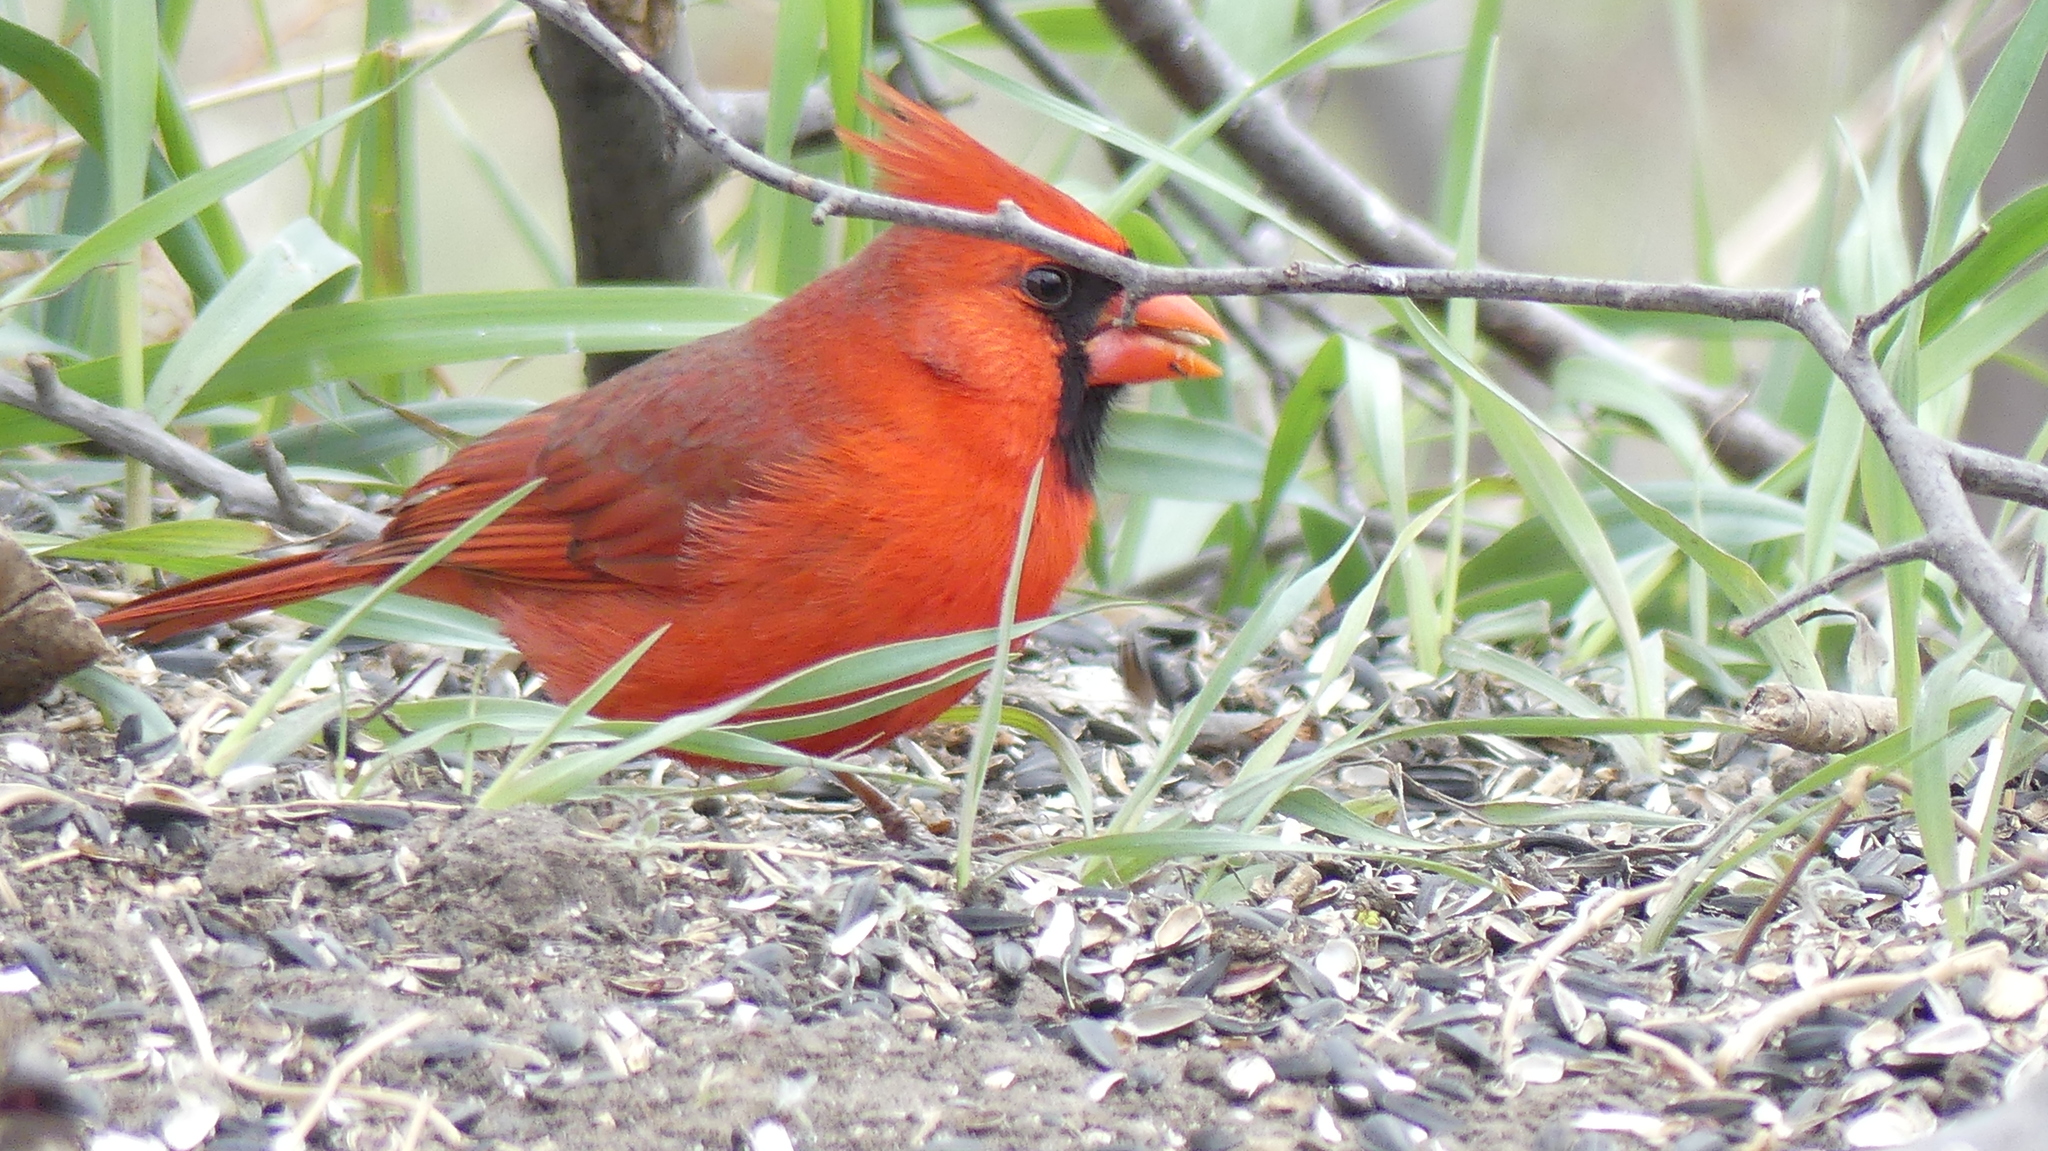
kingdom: Animalia
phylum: Chordata
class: Aves
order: Passeriformes
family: Cardinalidae
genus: Cardinalis
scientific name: Cardinalis cardinalis
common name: Northern cardinal
